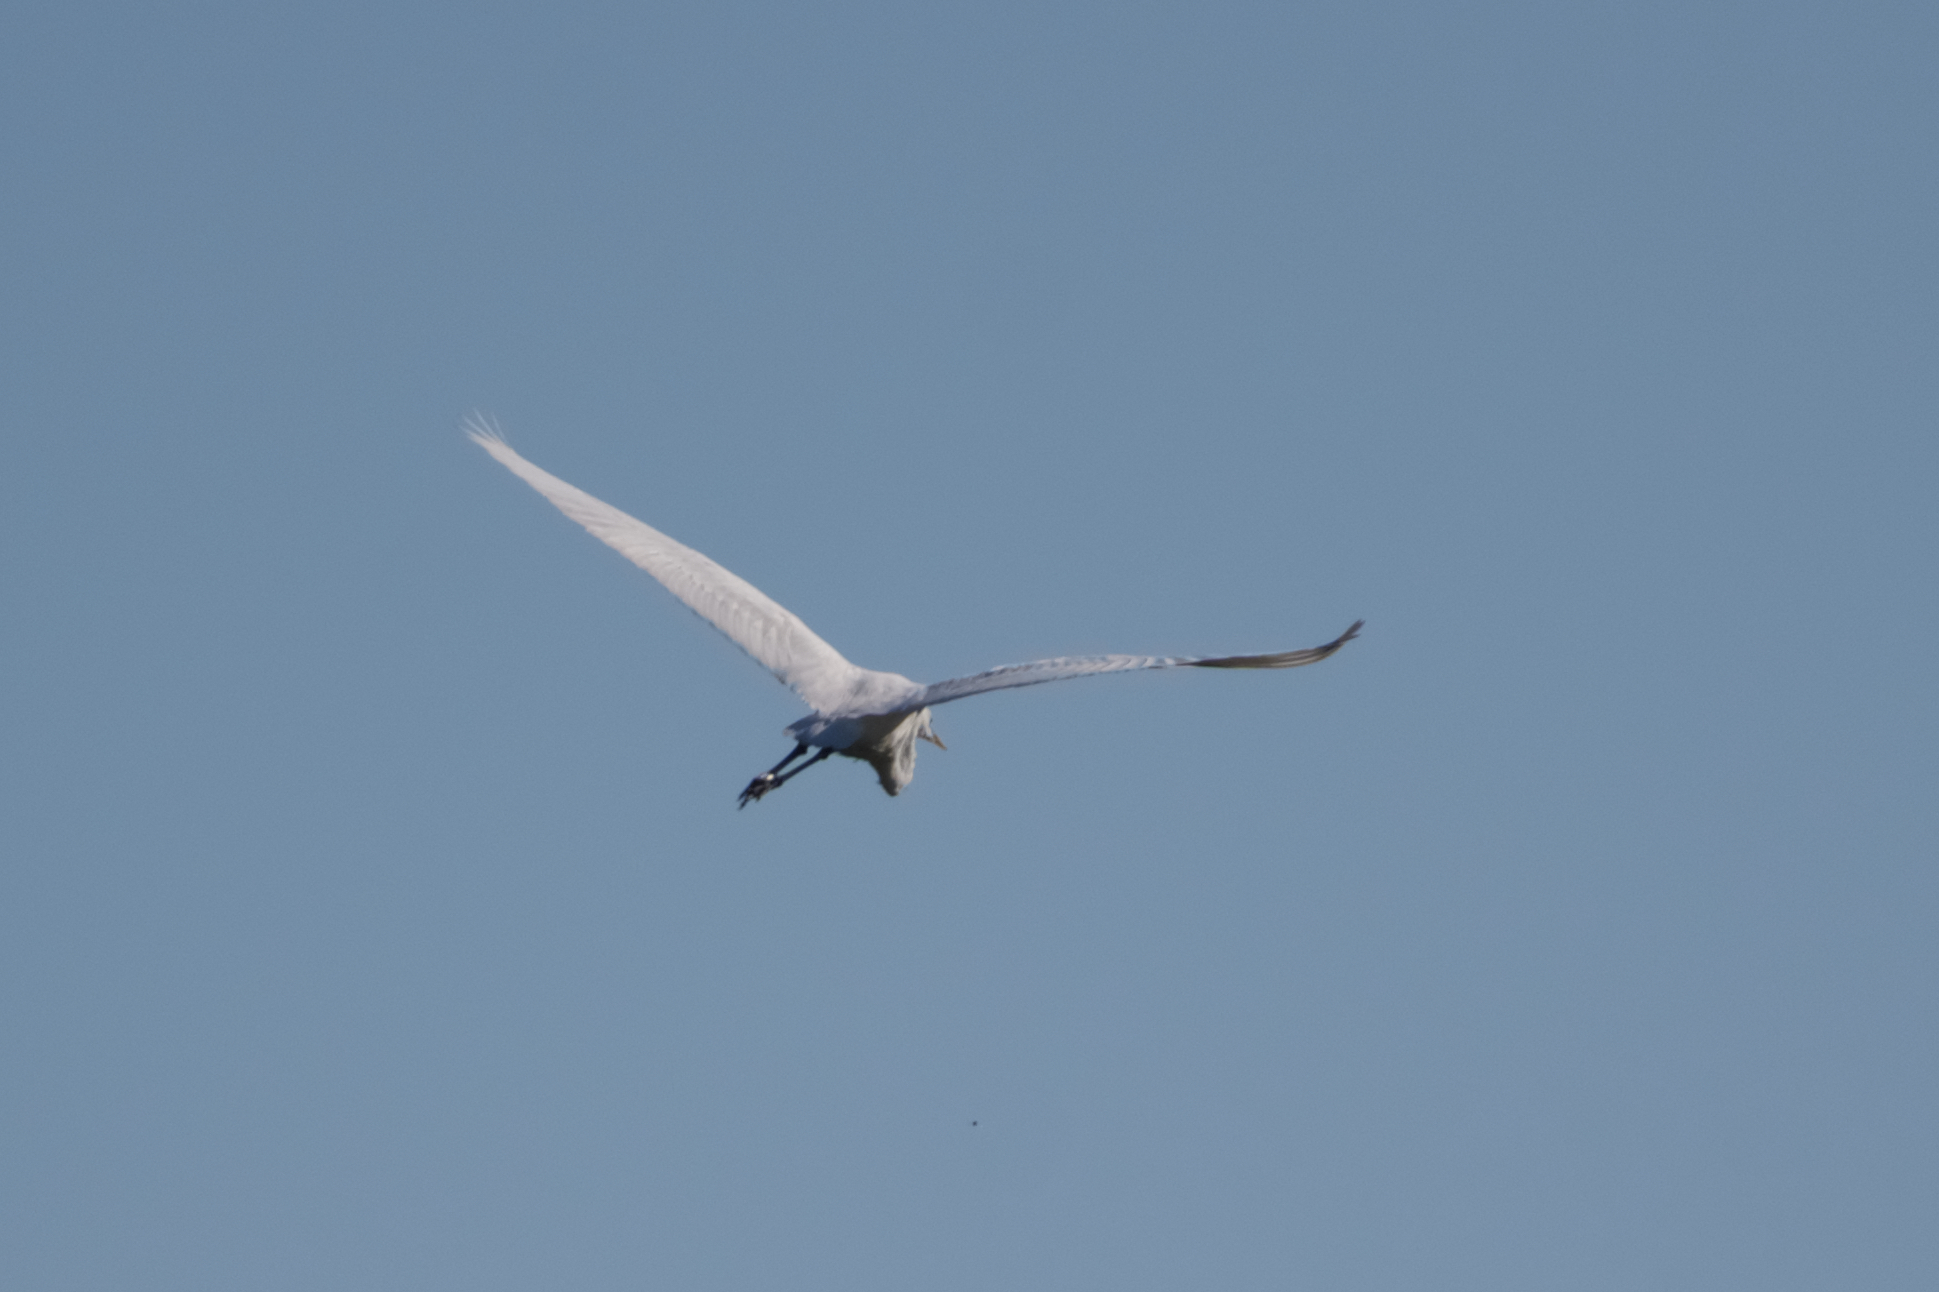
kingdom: Animalia
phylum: Chordata
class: Aves
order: Pelecaniformes
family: Ardeidae
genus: Ardea
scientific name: Ardea alba
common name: Great egret
